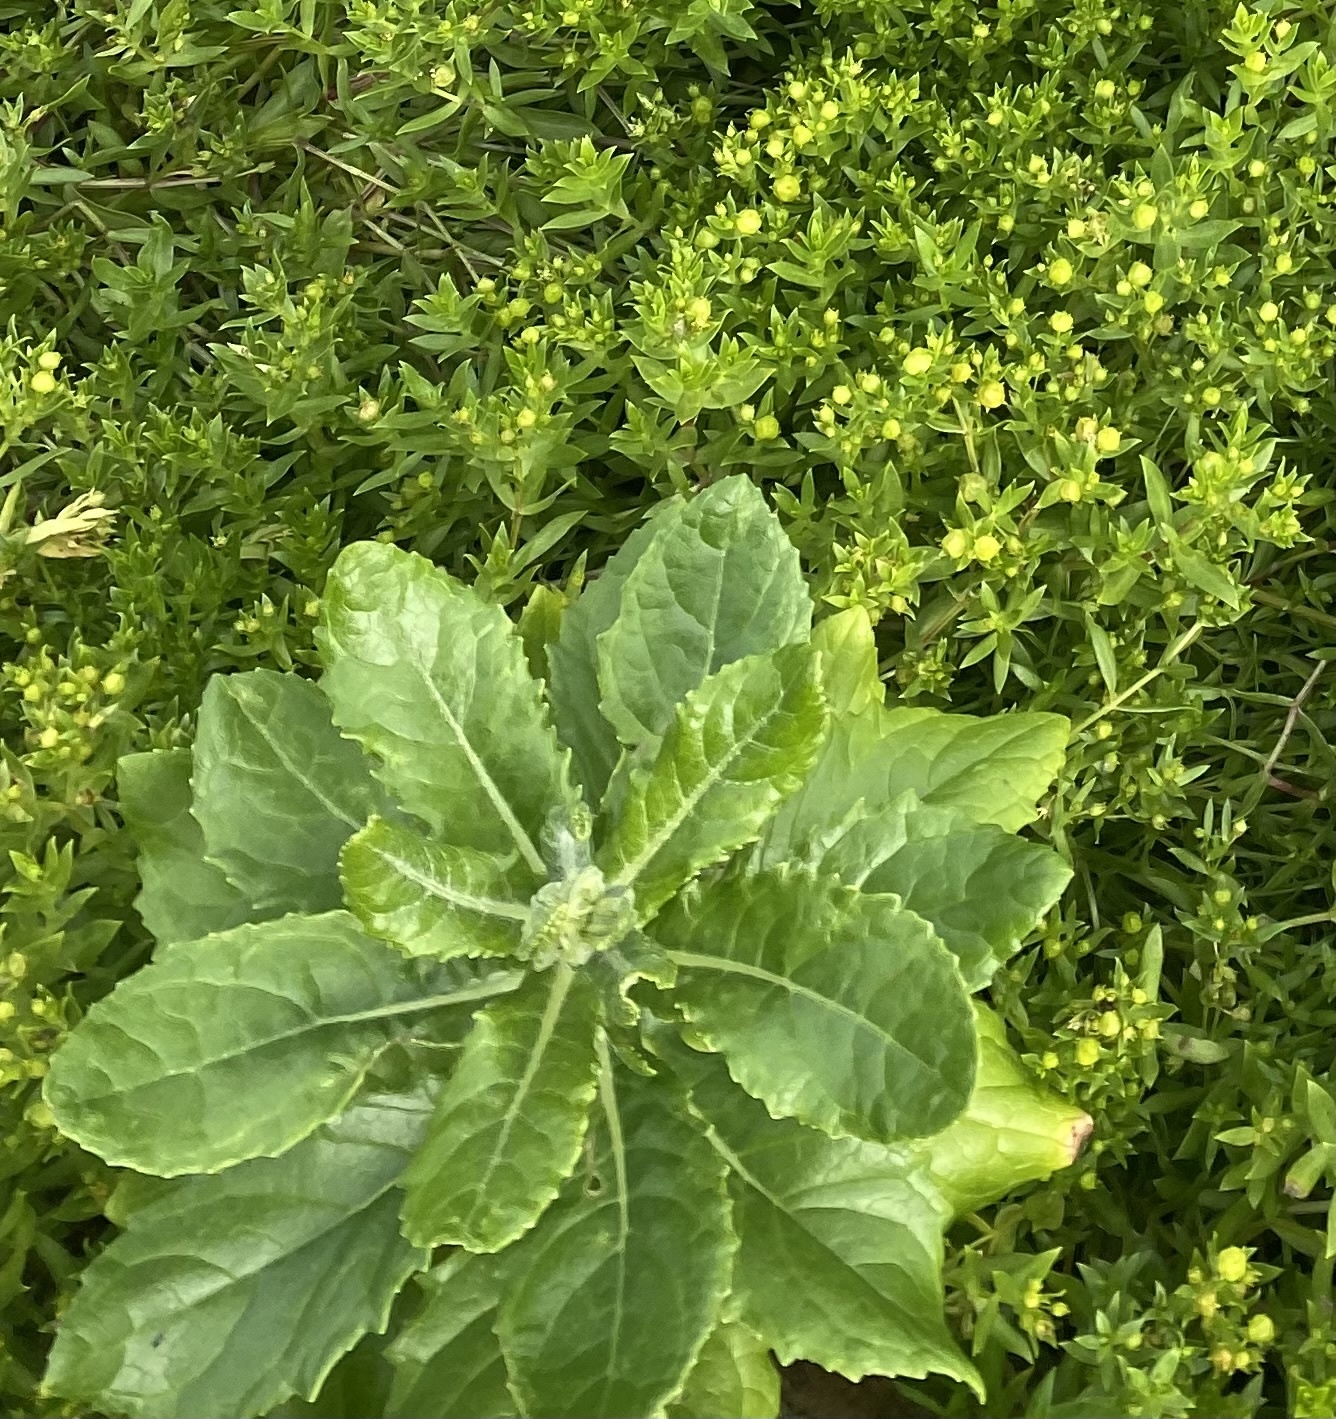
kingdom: Plantae
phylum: Tracheophyta
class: Magnoliopsida
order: Asterales
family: Asteraceae
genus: Jacobaea
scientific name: Jacobaea pseudoarnica
